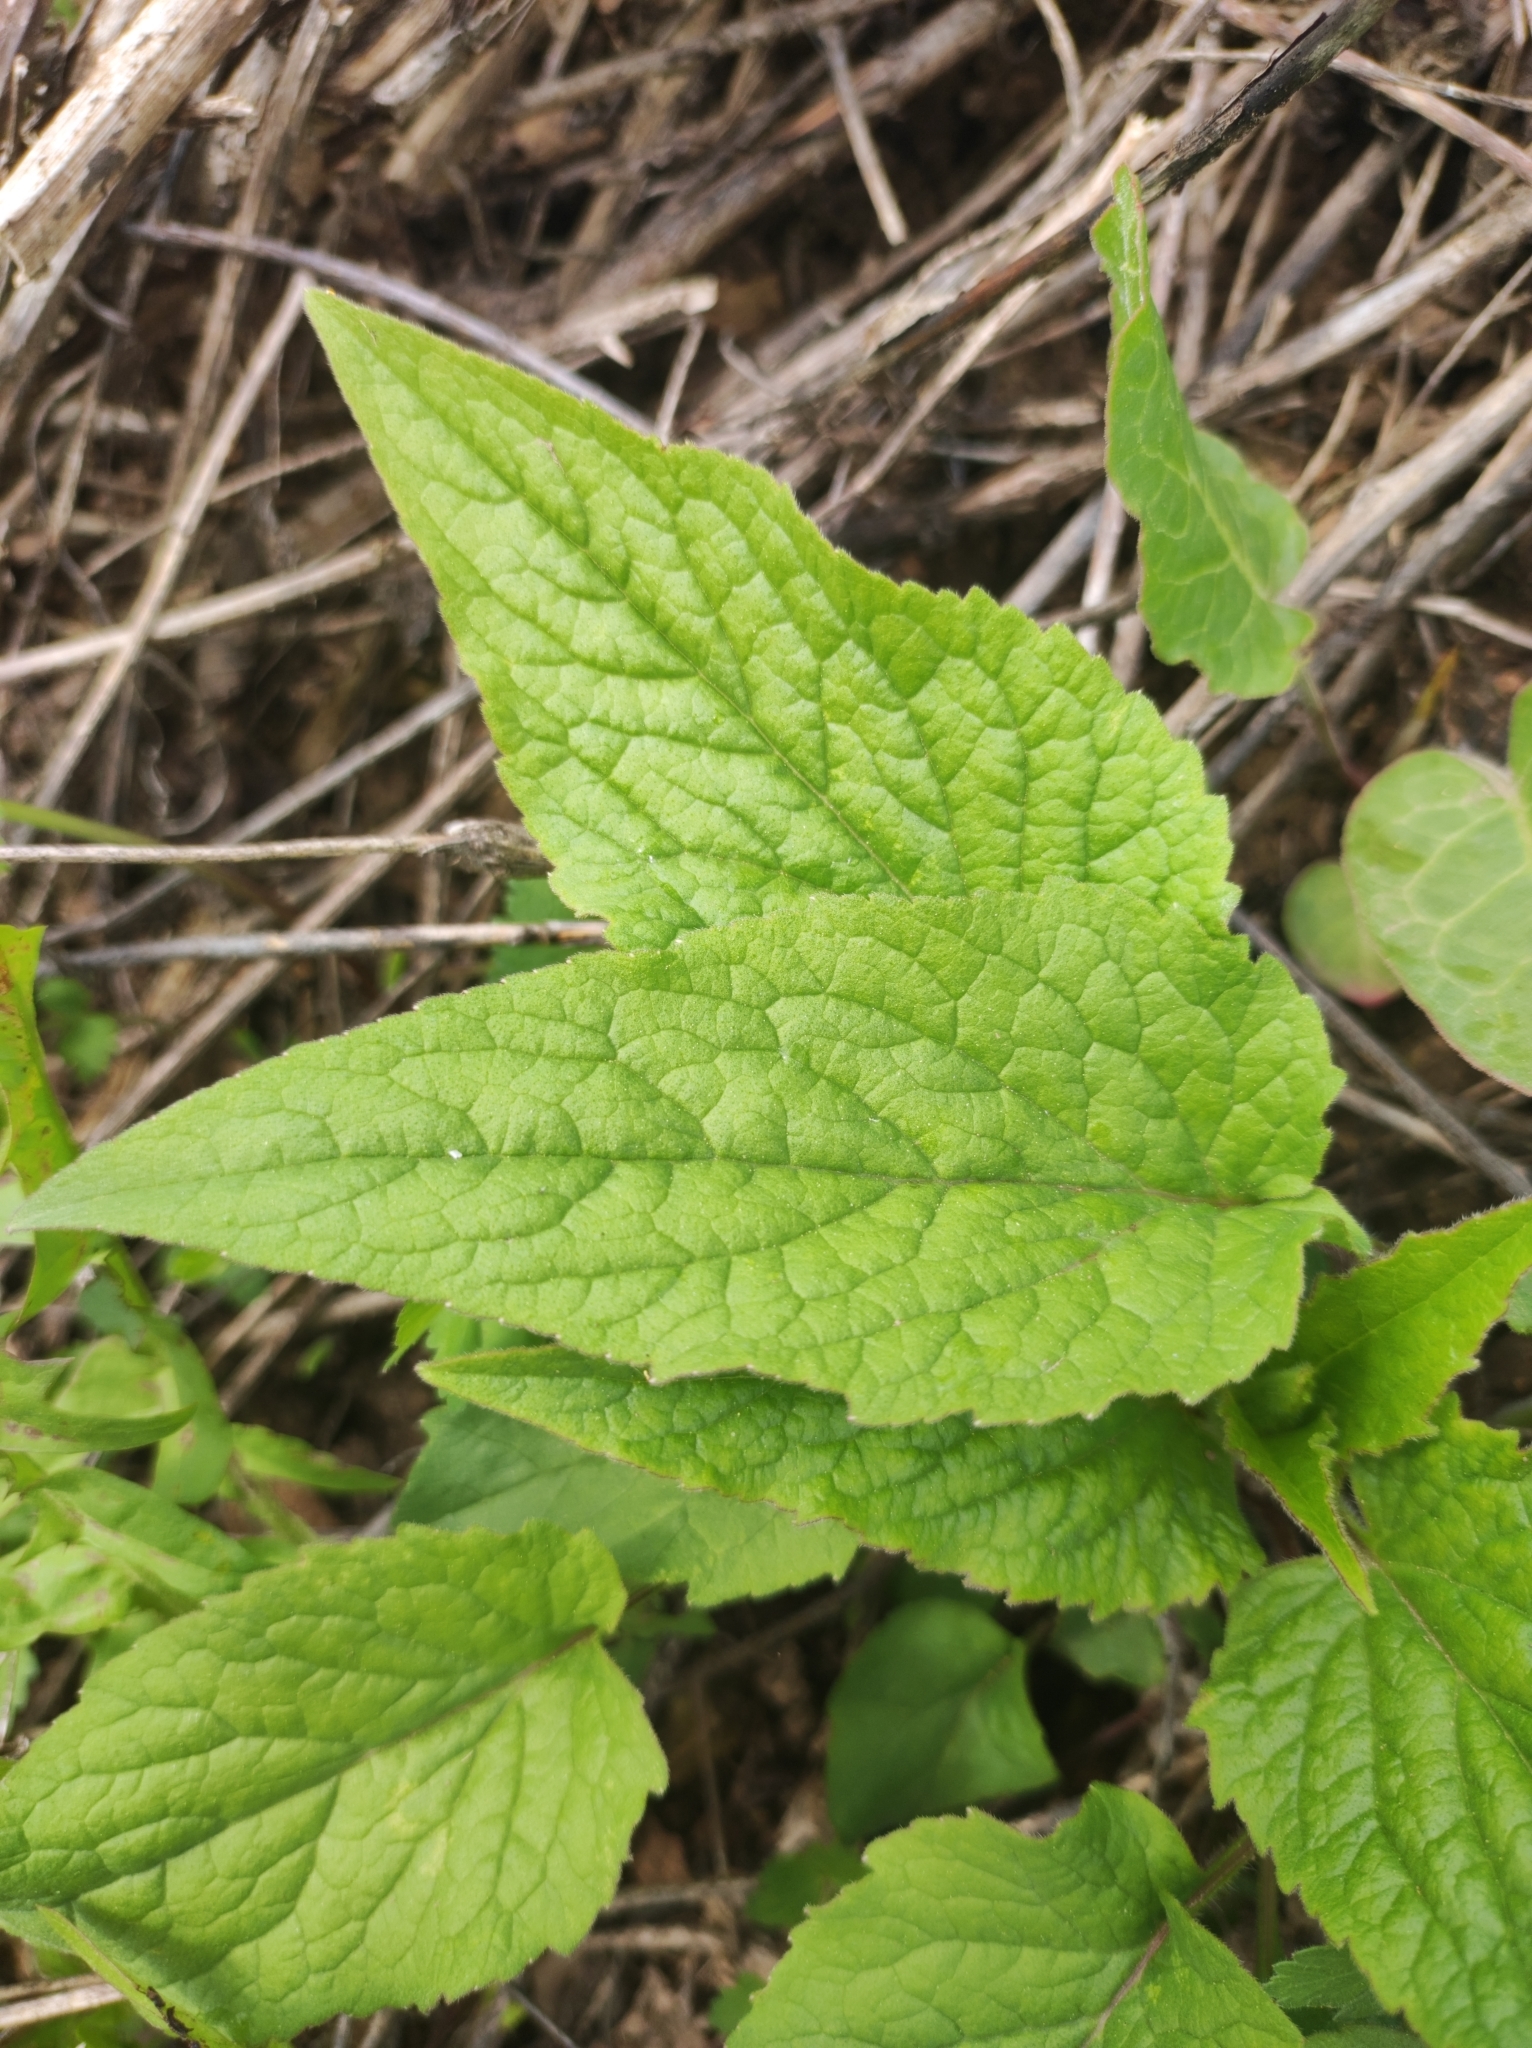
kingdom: Plantae
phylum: Tracheophyta
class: Magnoliopsida
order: Asterales
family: Campanulaceae
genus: Campanula
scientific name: Campanula rapunculoides
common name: Creeping bellflower
